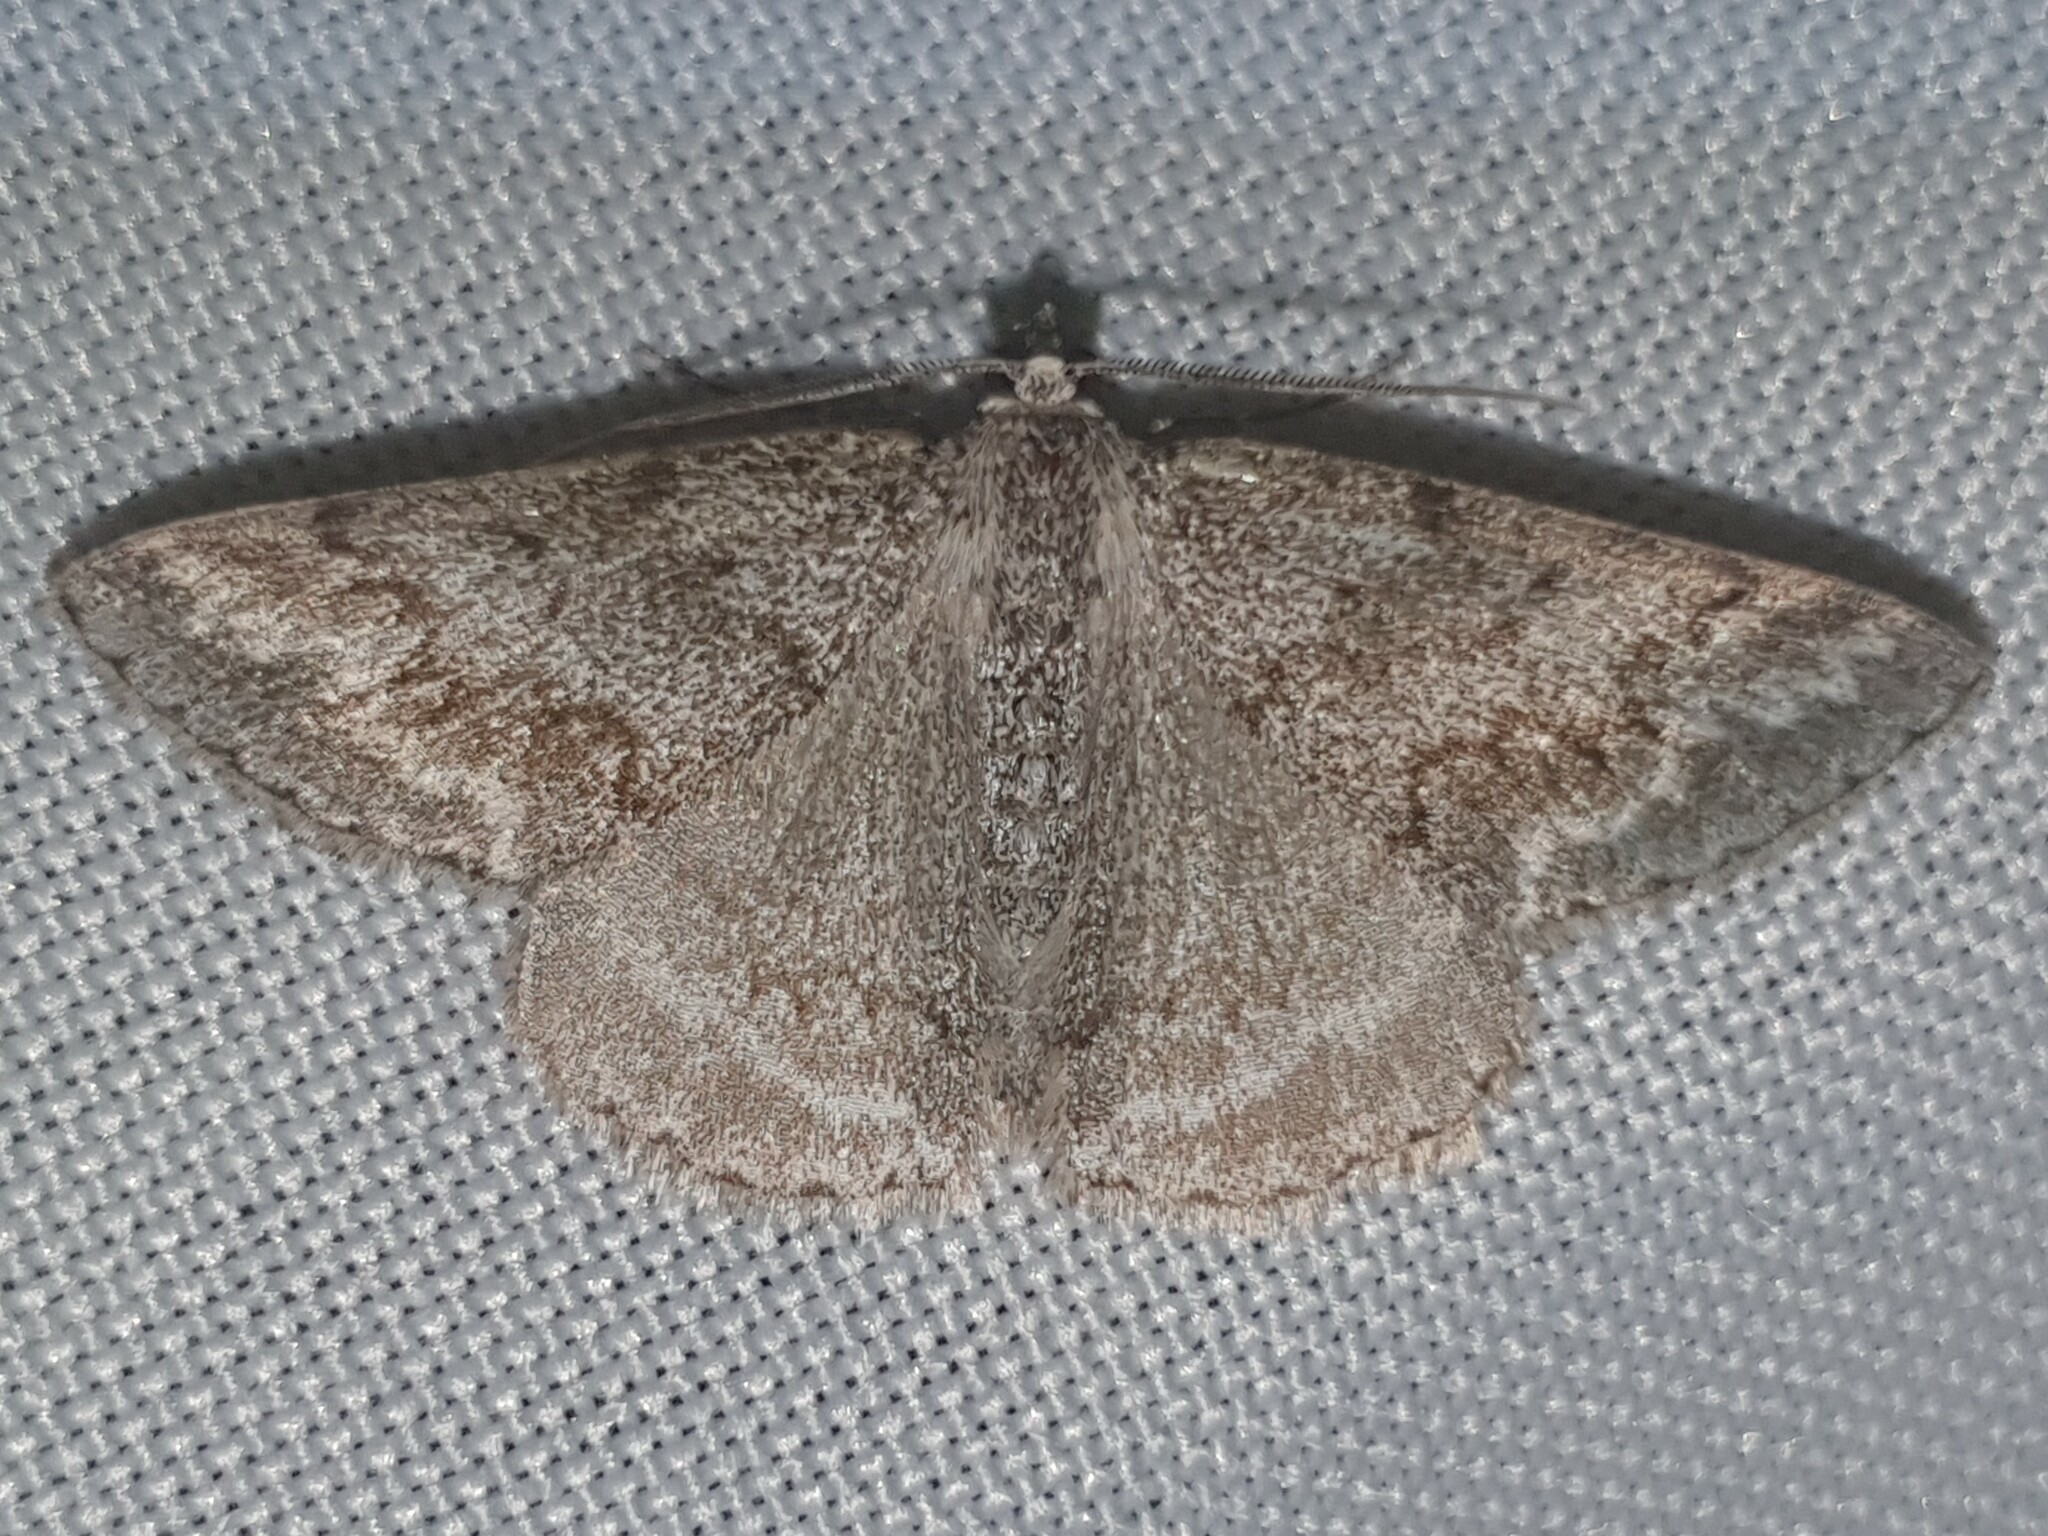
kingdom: Animalia
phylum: Arthropoda
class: Insecta
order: Lepidoptera
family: Geometridae
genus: Pseudoterpna
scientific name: Pseudoterpna coronillaria
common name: Jersey emerald
